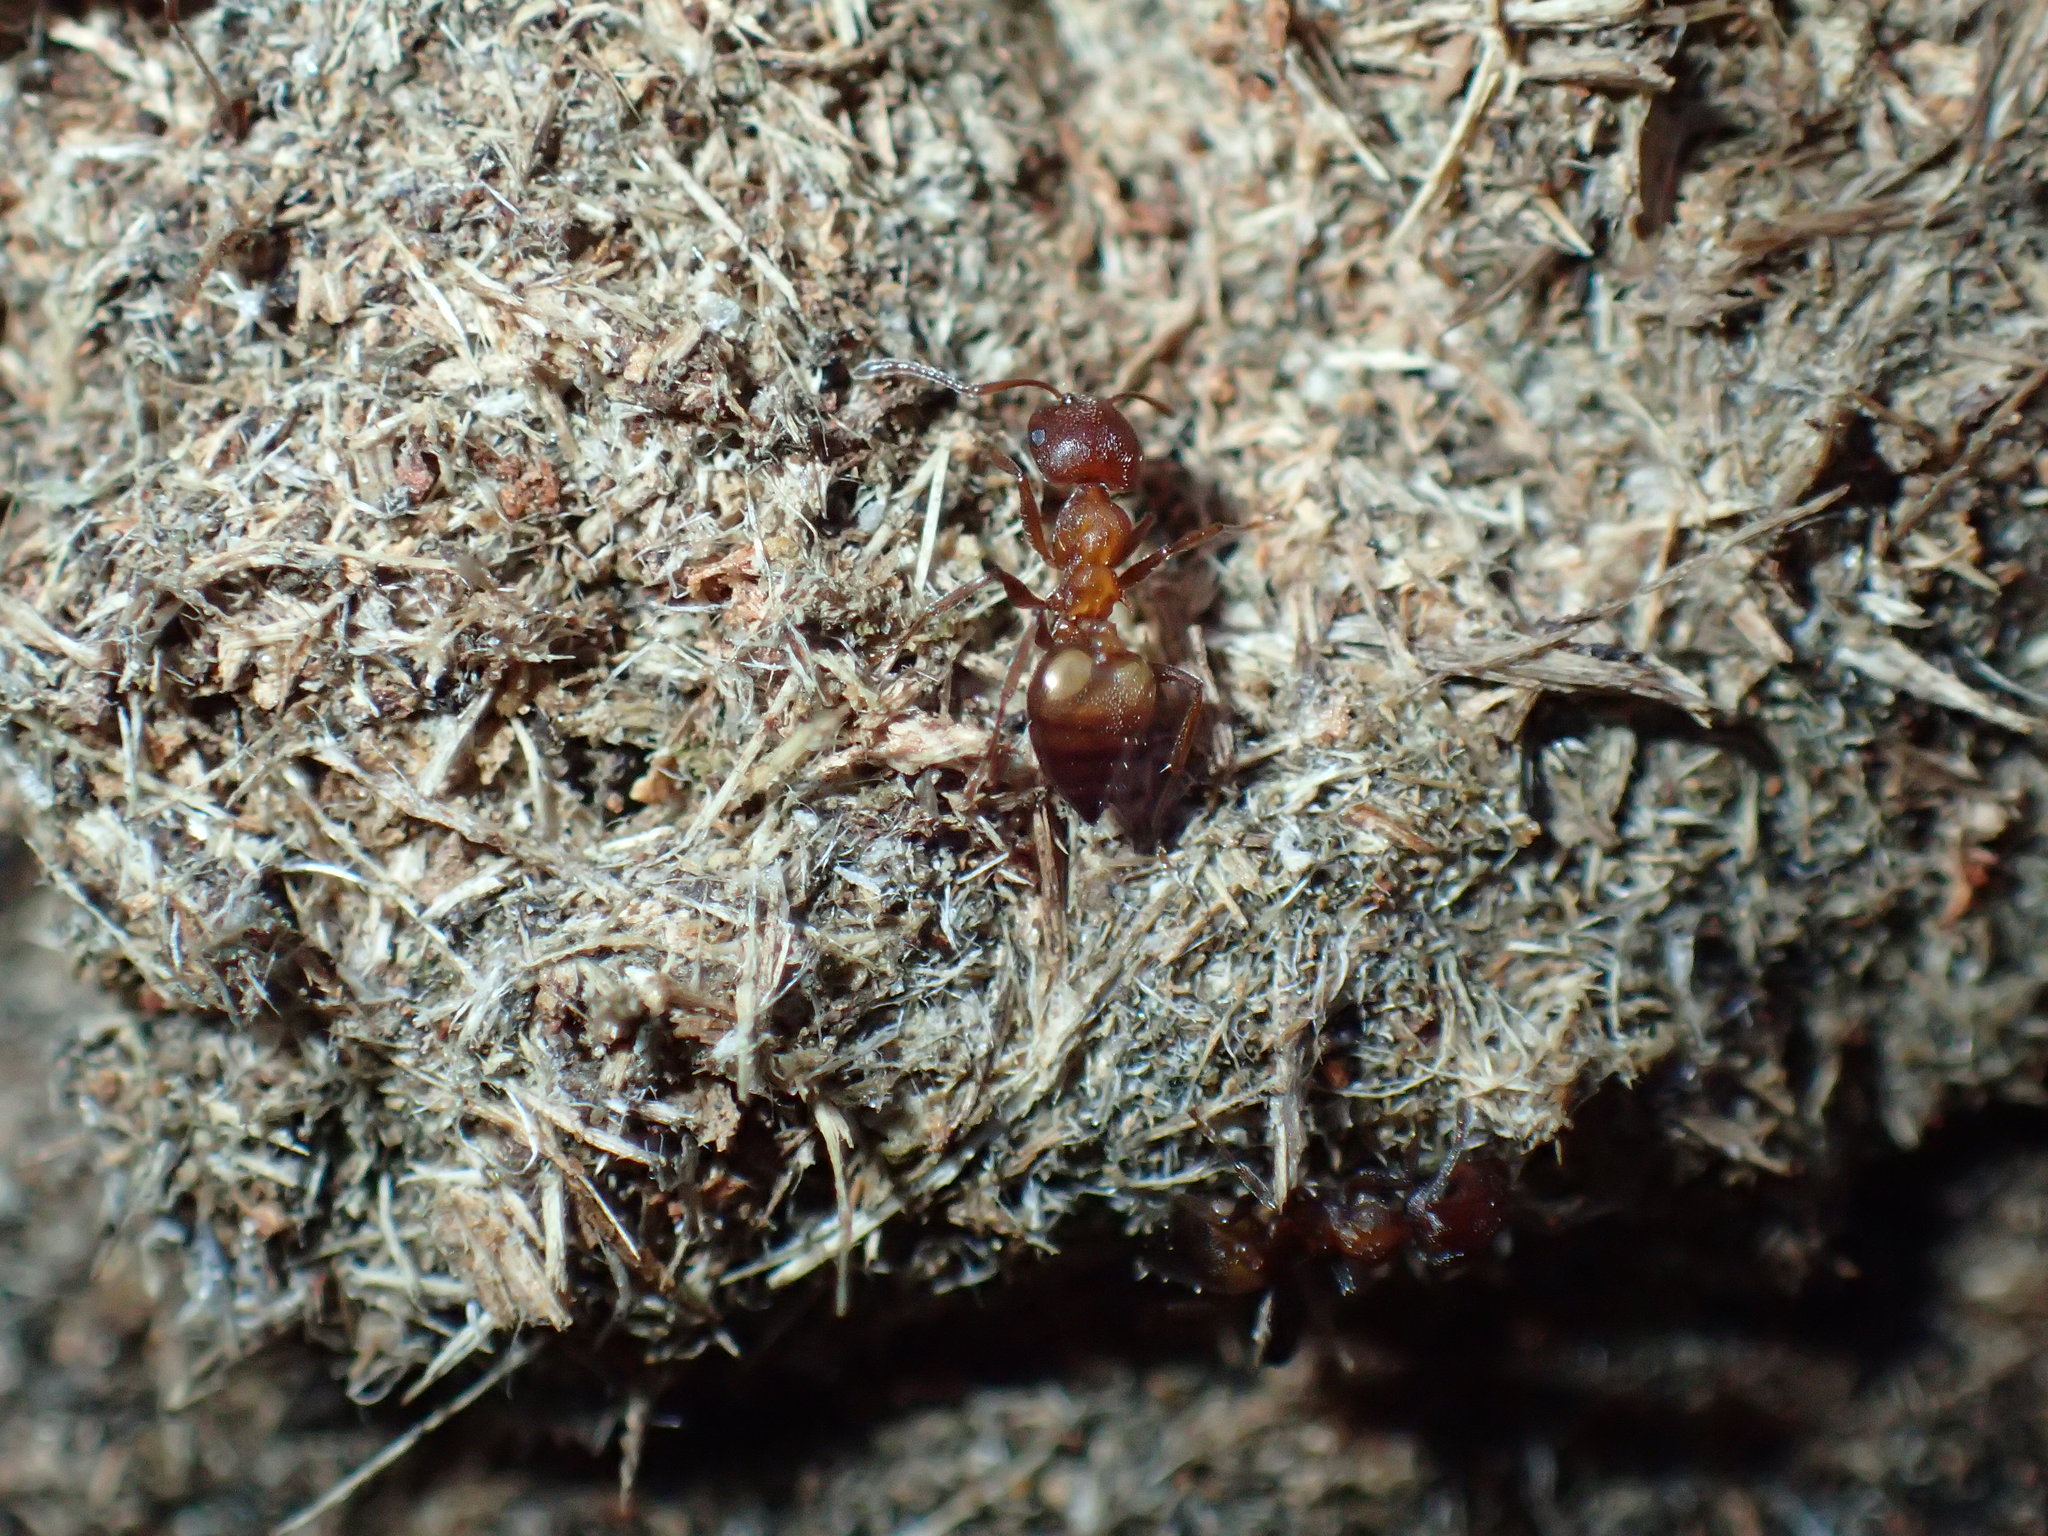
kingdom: Animalia
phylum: Arthropoda
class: Insecta
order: Hymenoptera
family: Formicidae
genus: Crematogaster
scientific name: Crematogaster castanea
